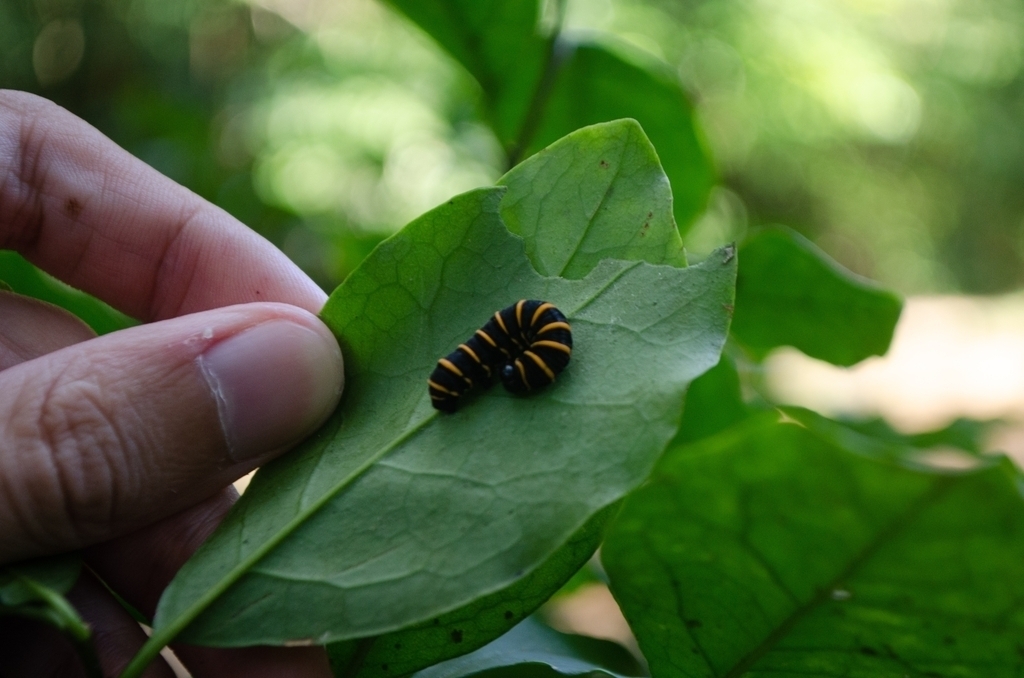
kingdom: Plantae
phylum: Tracheophyta
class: Magnoliopsida
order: Solanales
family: Solanaceae
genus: Brunfelsia
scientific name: Brunfelsia uniflora
